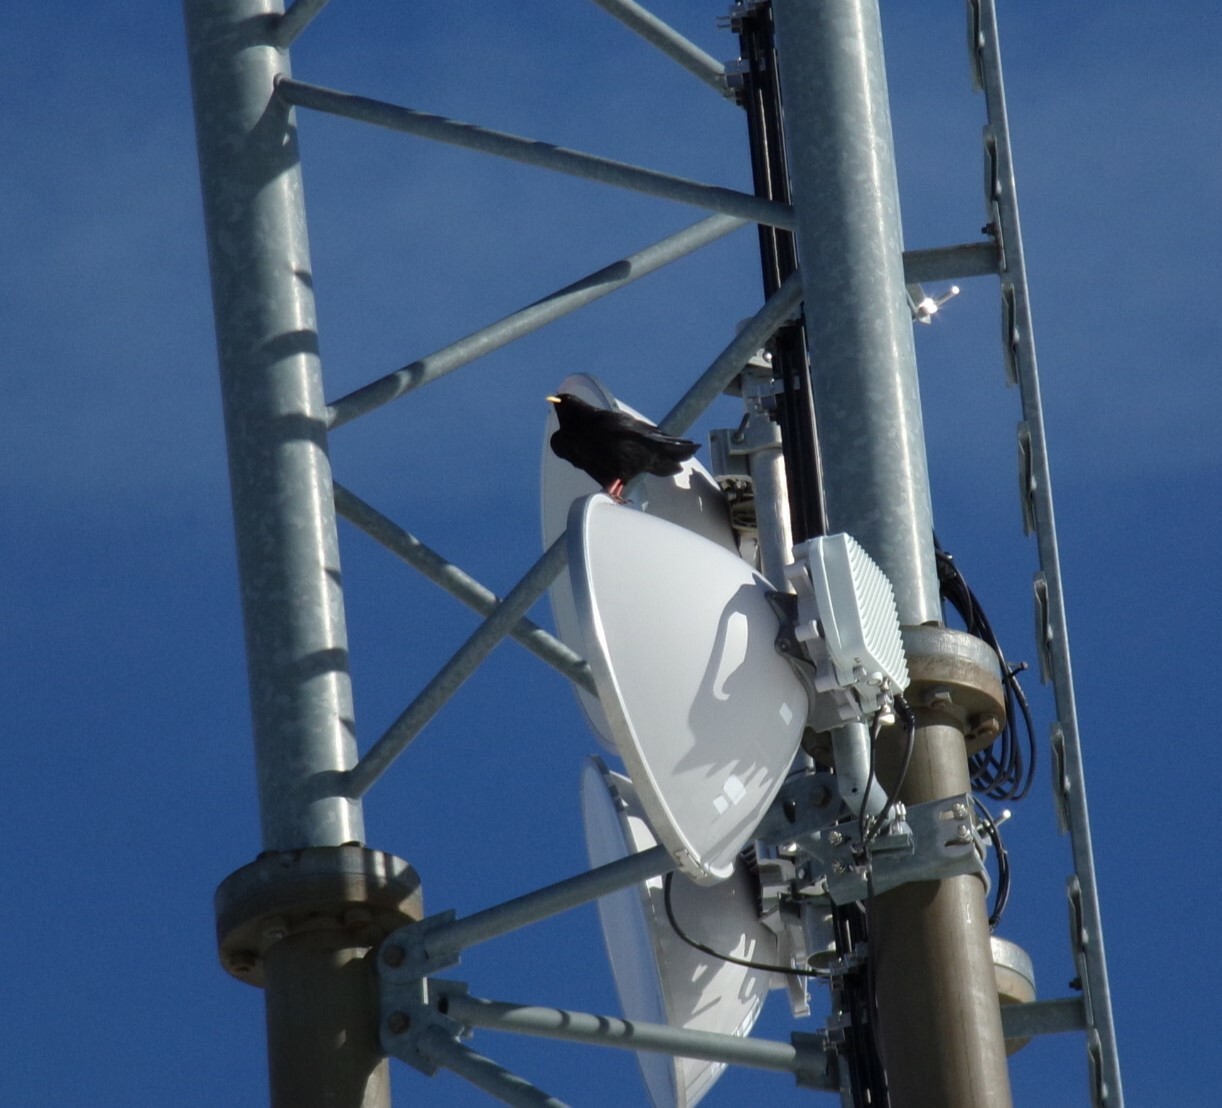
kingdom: Animalia
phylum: Chordata
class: Aves
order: Passeriformes
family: Corvidae
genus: Pyrrhocorax
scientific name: Pyrrhocorax graculus
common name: Alpine chough
